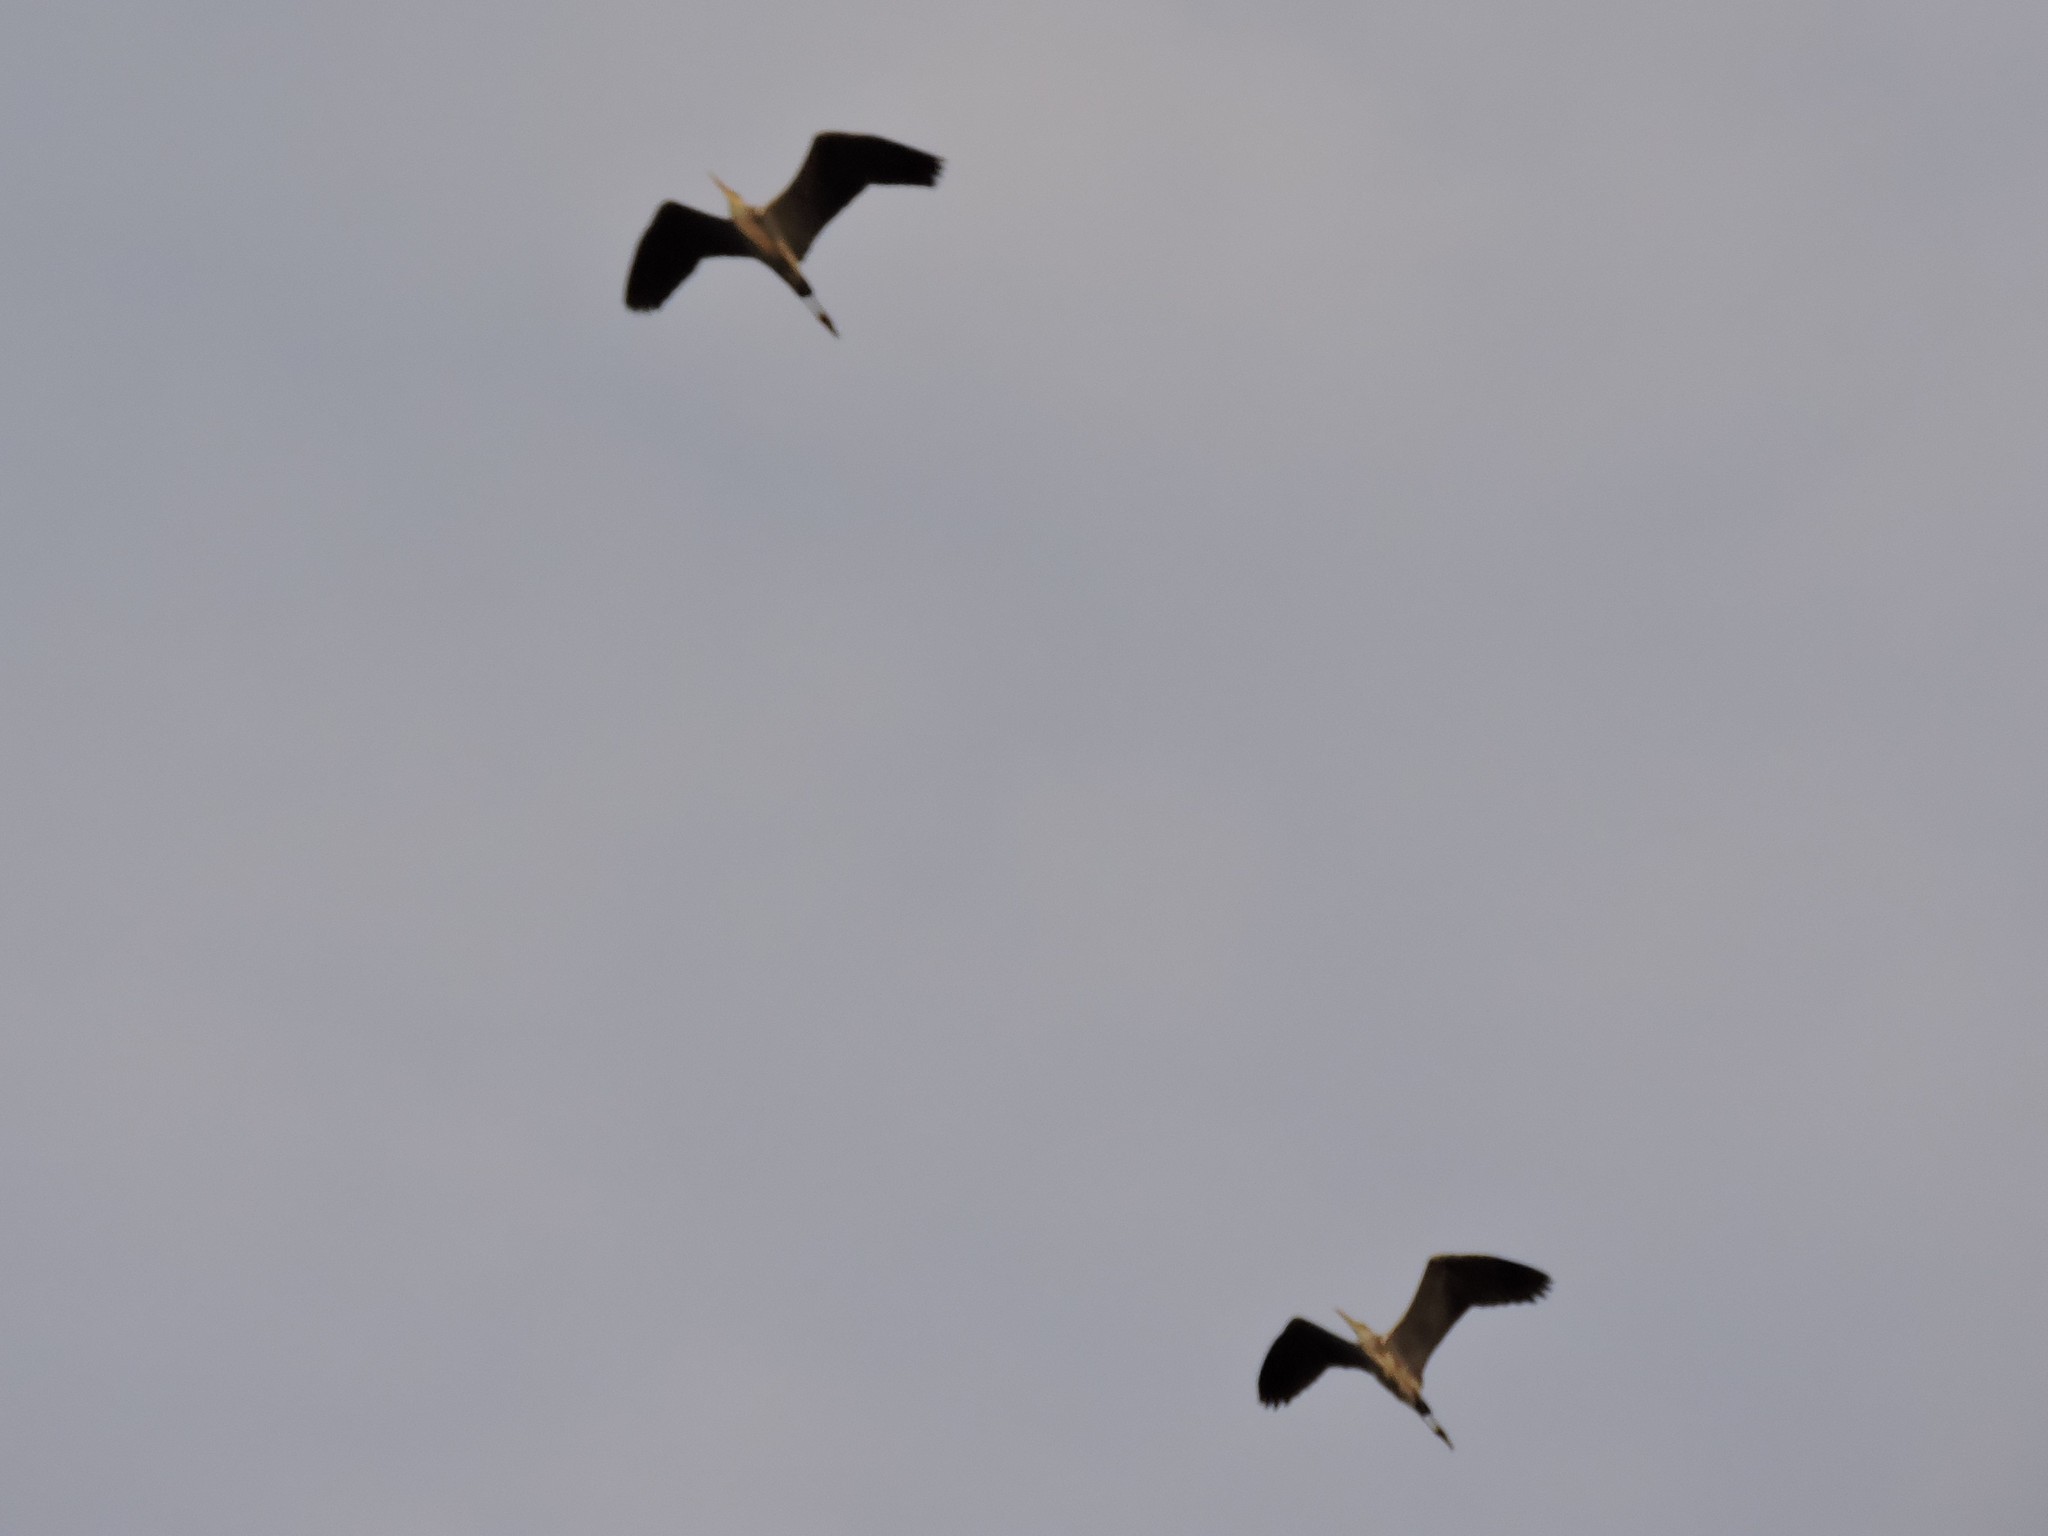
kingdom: Animalia
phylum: Chordata
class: Aves
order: Pelecaniformes
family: Ardeidae
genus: Ardea
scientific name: Ardea cinerea
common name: Grey heron
